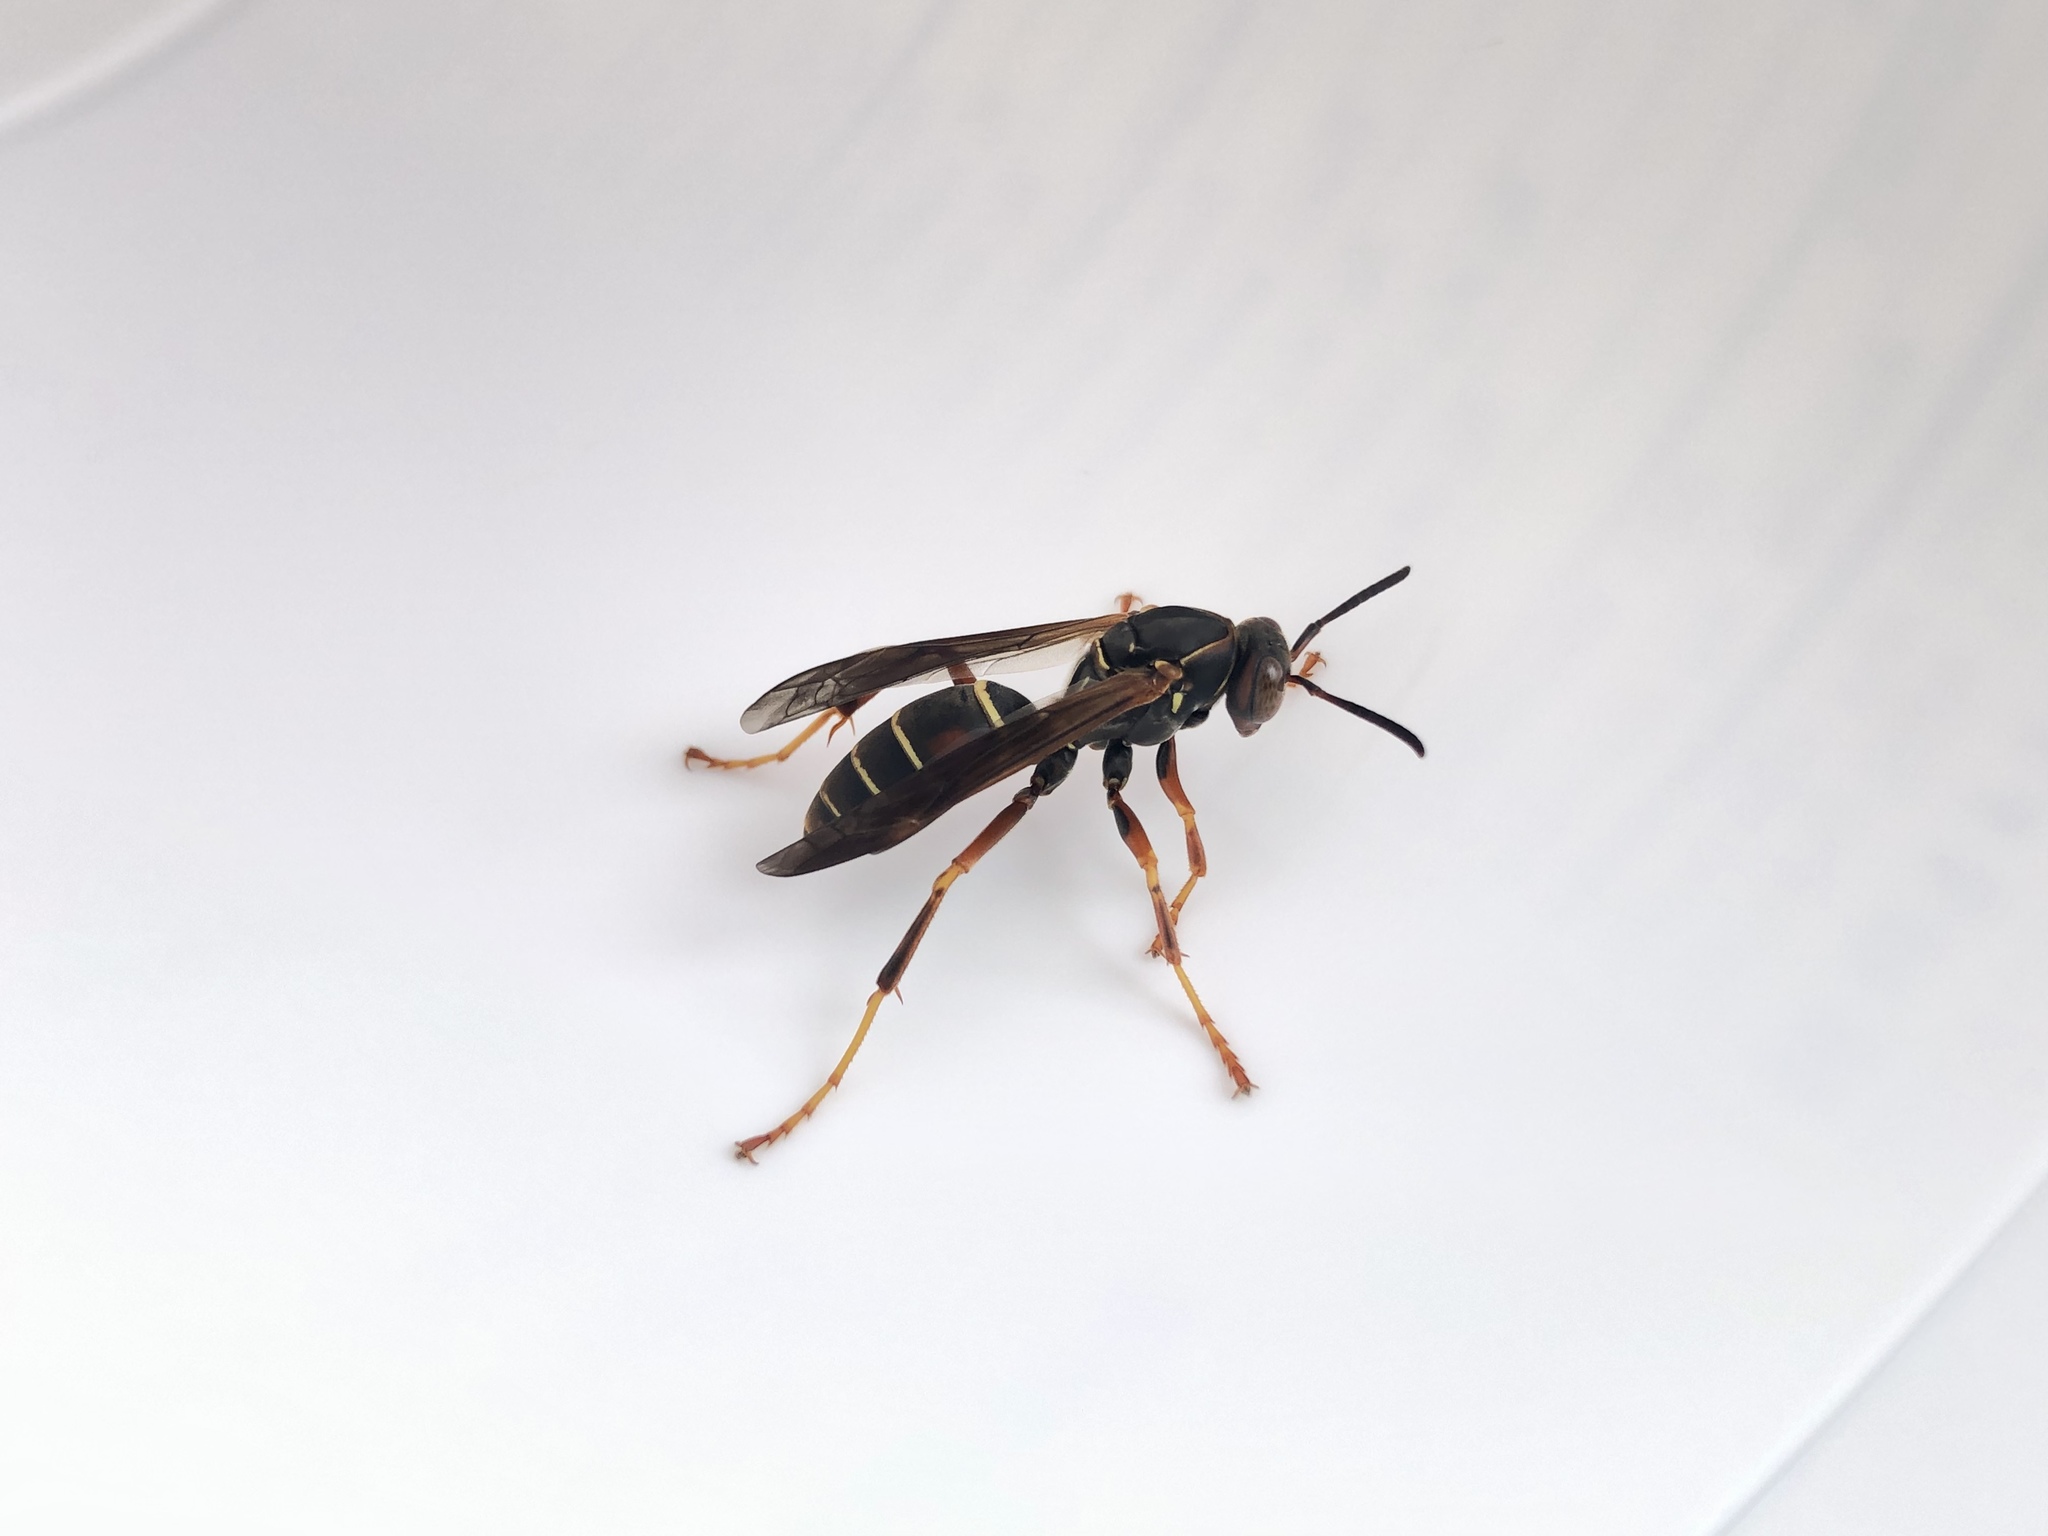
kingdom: Animalia
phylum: Arthropoda
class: Insecta
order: Hymenoptera
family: Eumenidae
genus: Polistes
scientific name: Polistes fuscatus
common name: Dark paper wasp
